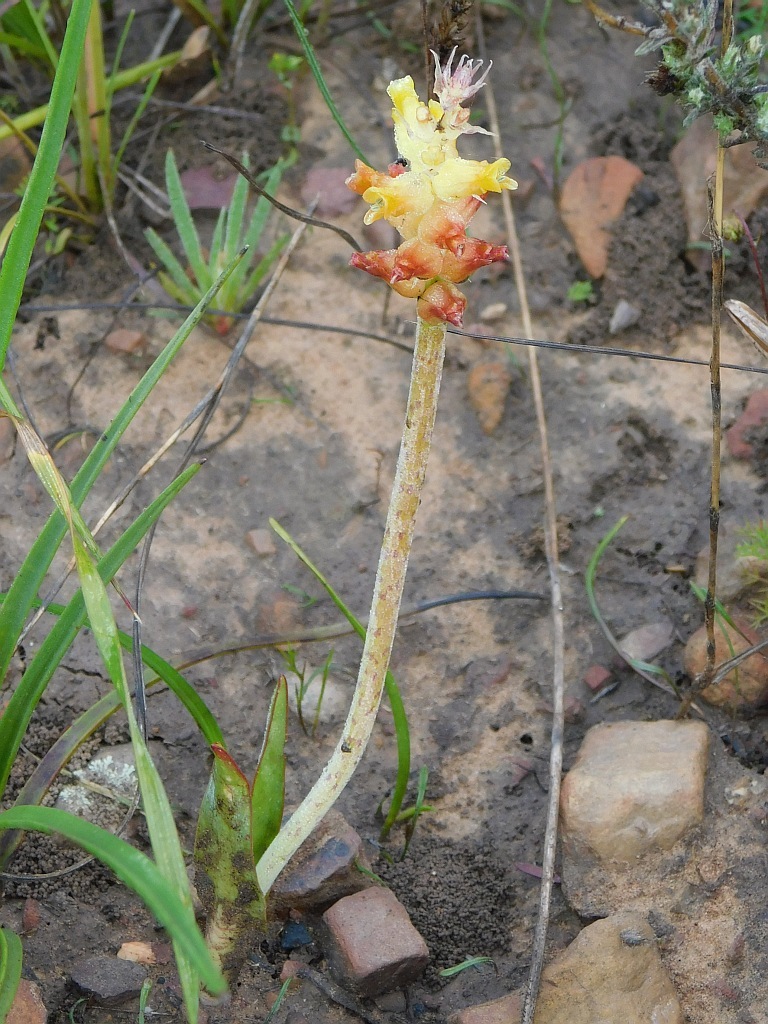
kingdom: Plantae
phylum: Tracheophyta
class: Liliopsida
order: Asparagales
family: Asparagaceae
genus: Lachenalia
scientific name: Lachenalia lutea
